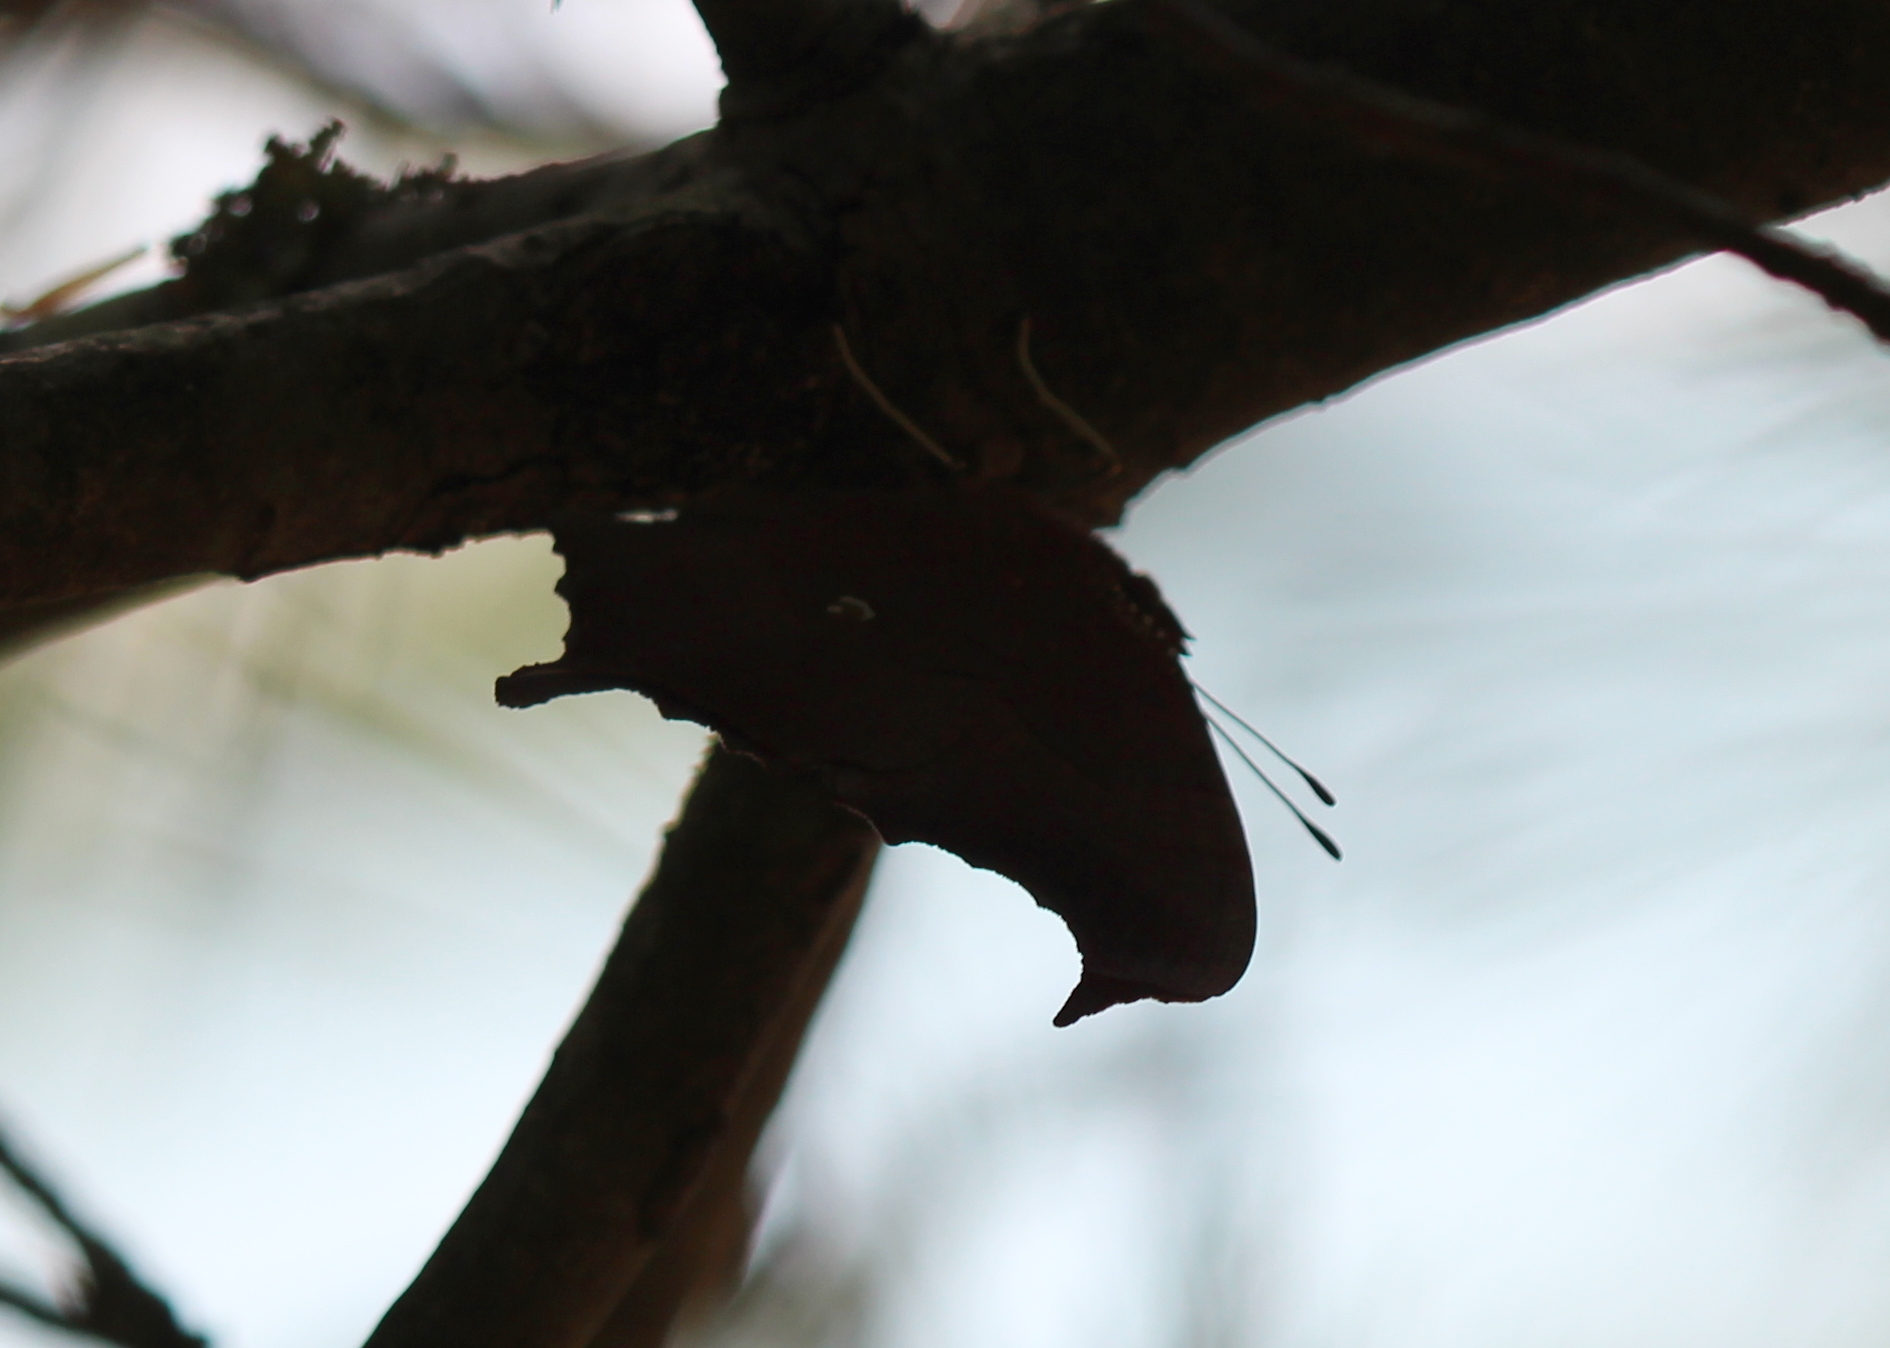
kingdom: Animalia
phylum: Arthropoda
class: Insecta
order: Lepidoptera
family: Nymphalidae
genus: Polygonia
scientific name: Polygonia interrogationis
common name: Question mark
